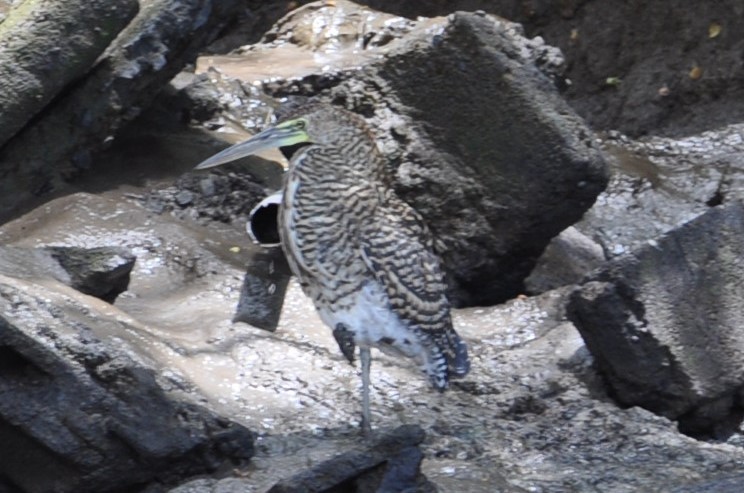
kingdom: Animalia
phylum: Chordata
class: Aves
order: Pelecaniformes
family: Ardeidae
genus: Tigrisoma
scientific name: Tigrisoma mexicanum
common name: Bare-throated tiger-heron
